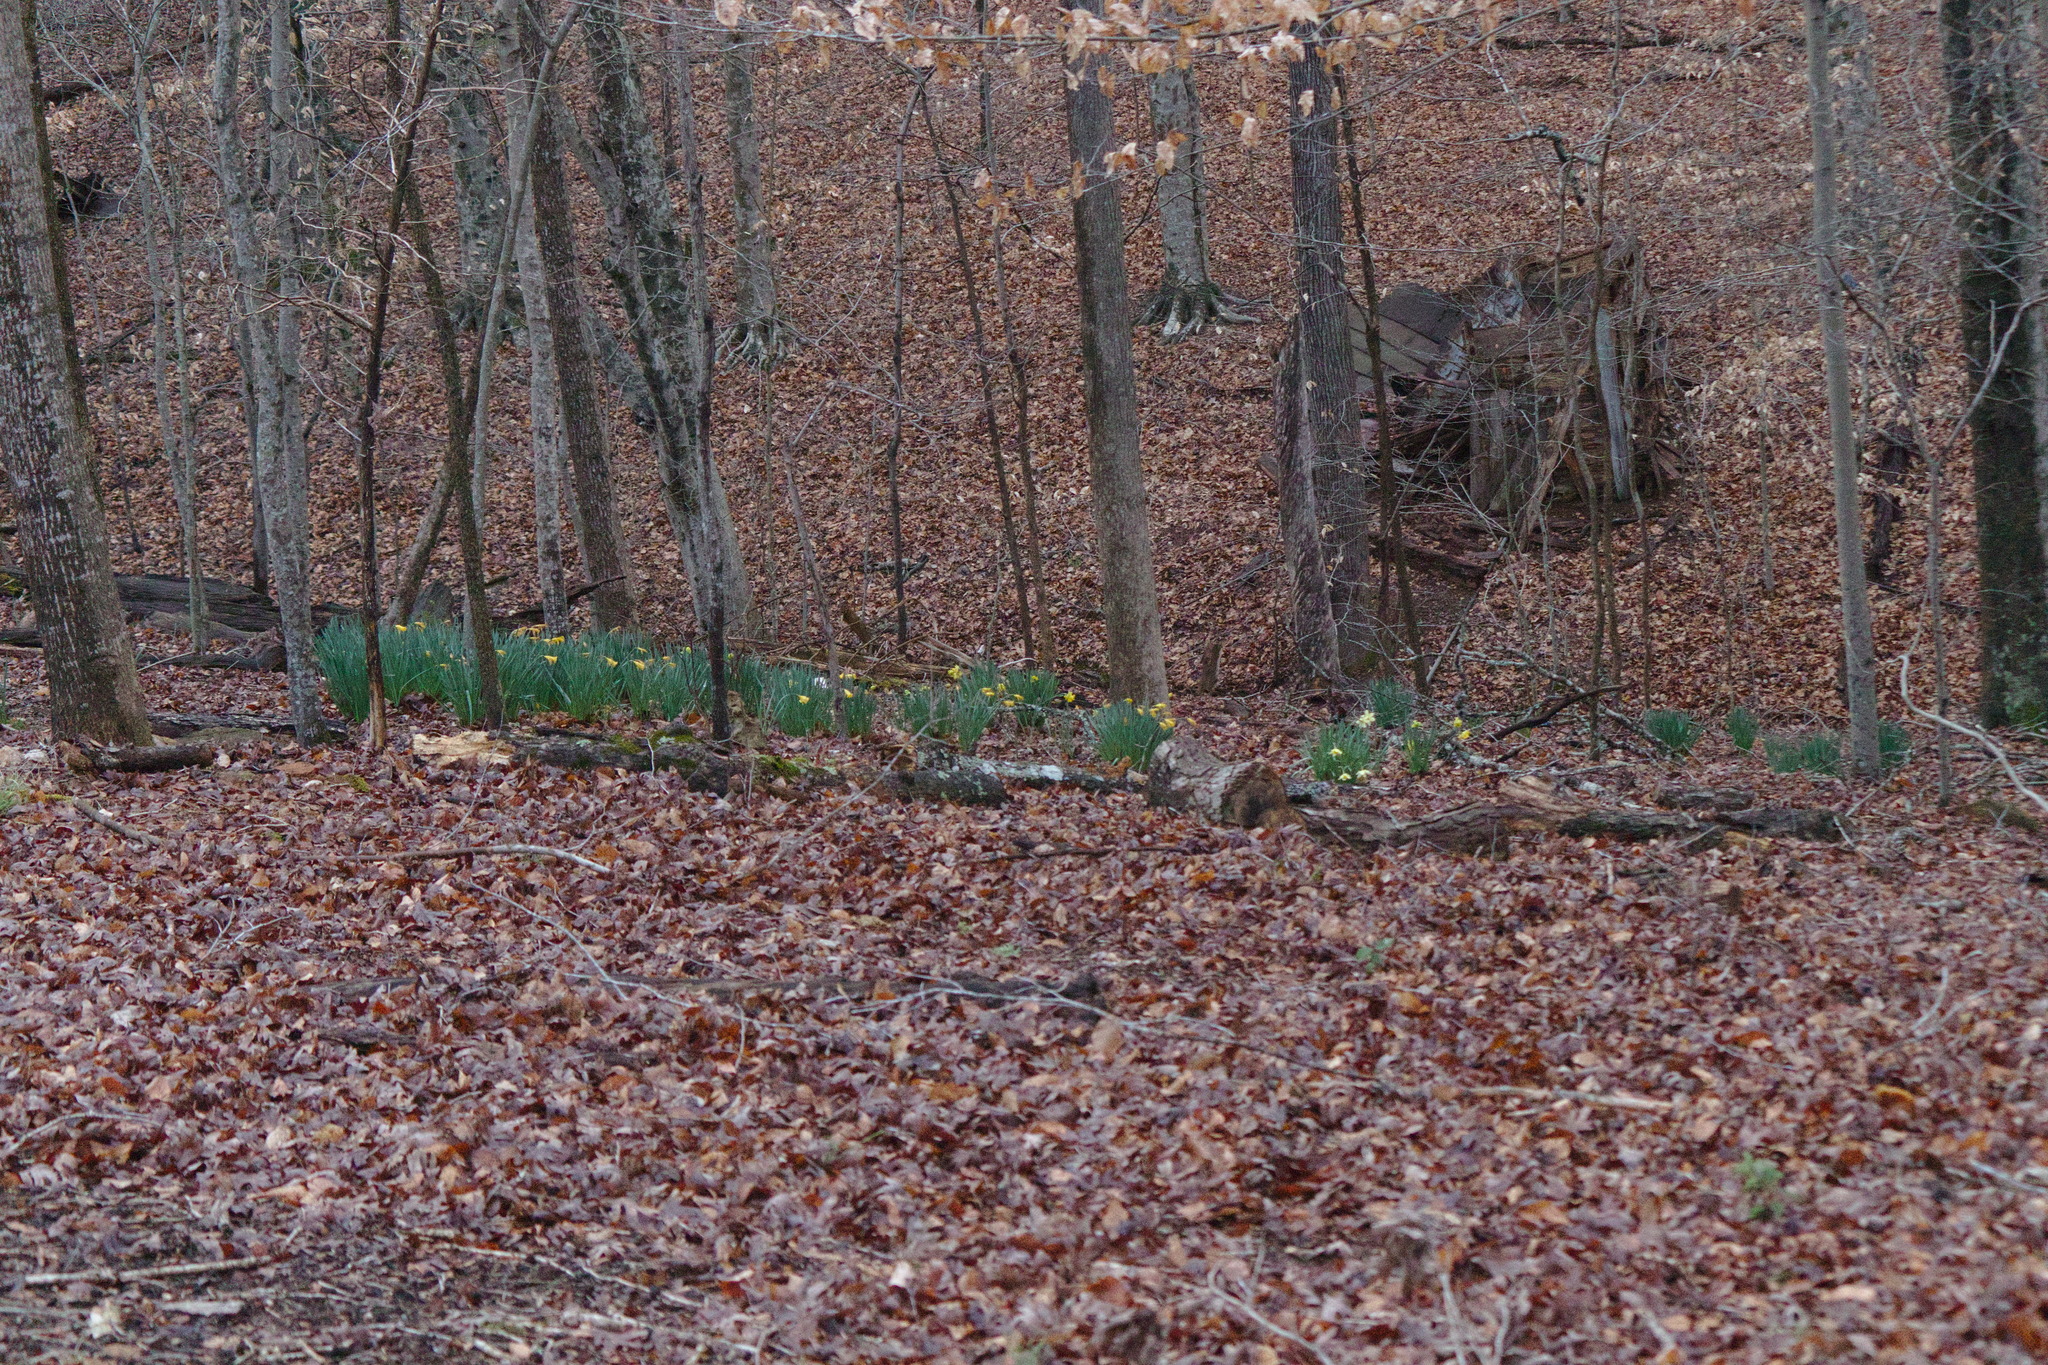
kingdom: Plantae
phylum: Tracheophyta
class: Liliopsida
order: Asparagales
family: Amaryllidaceae
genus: Narcissus
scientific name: Narcissus pseudonarcissus
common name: Daffodil
